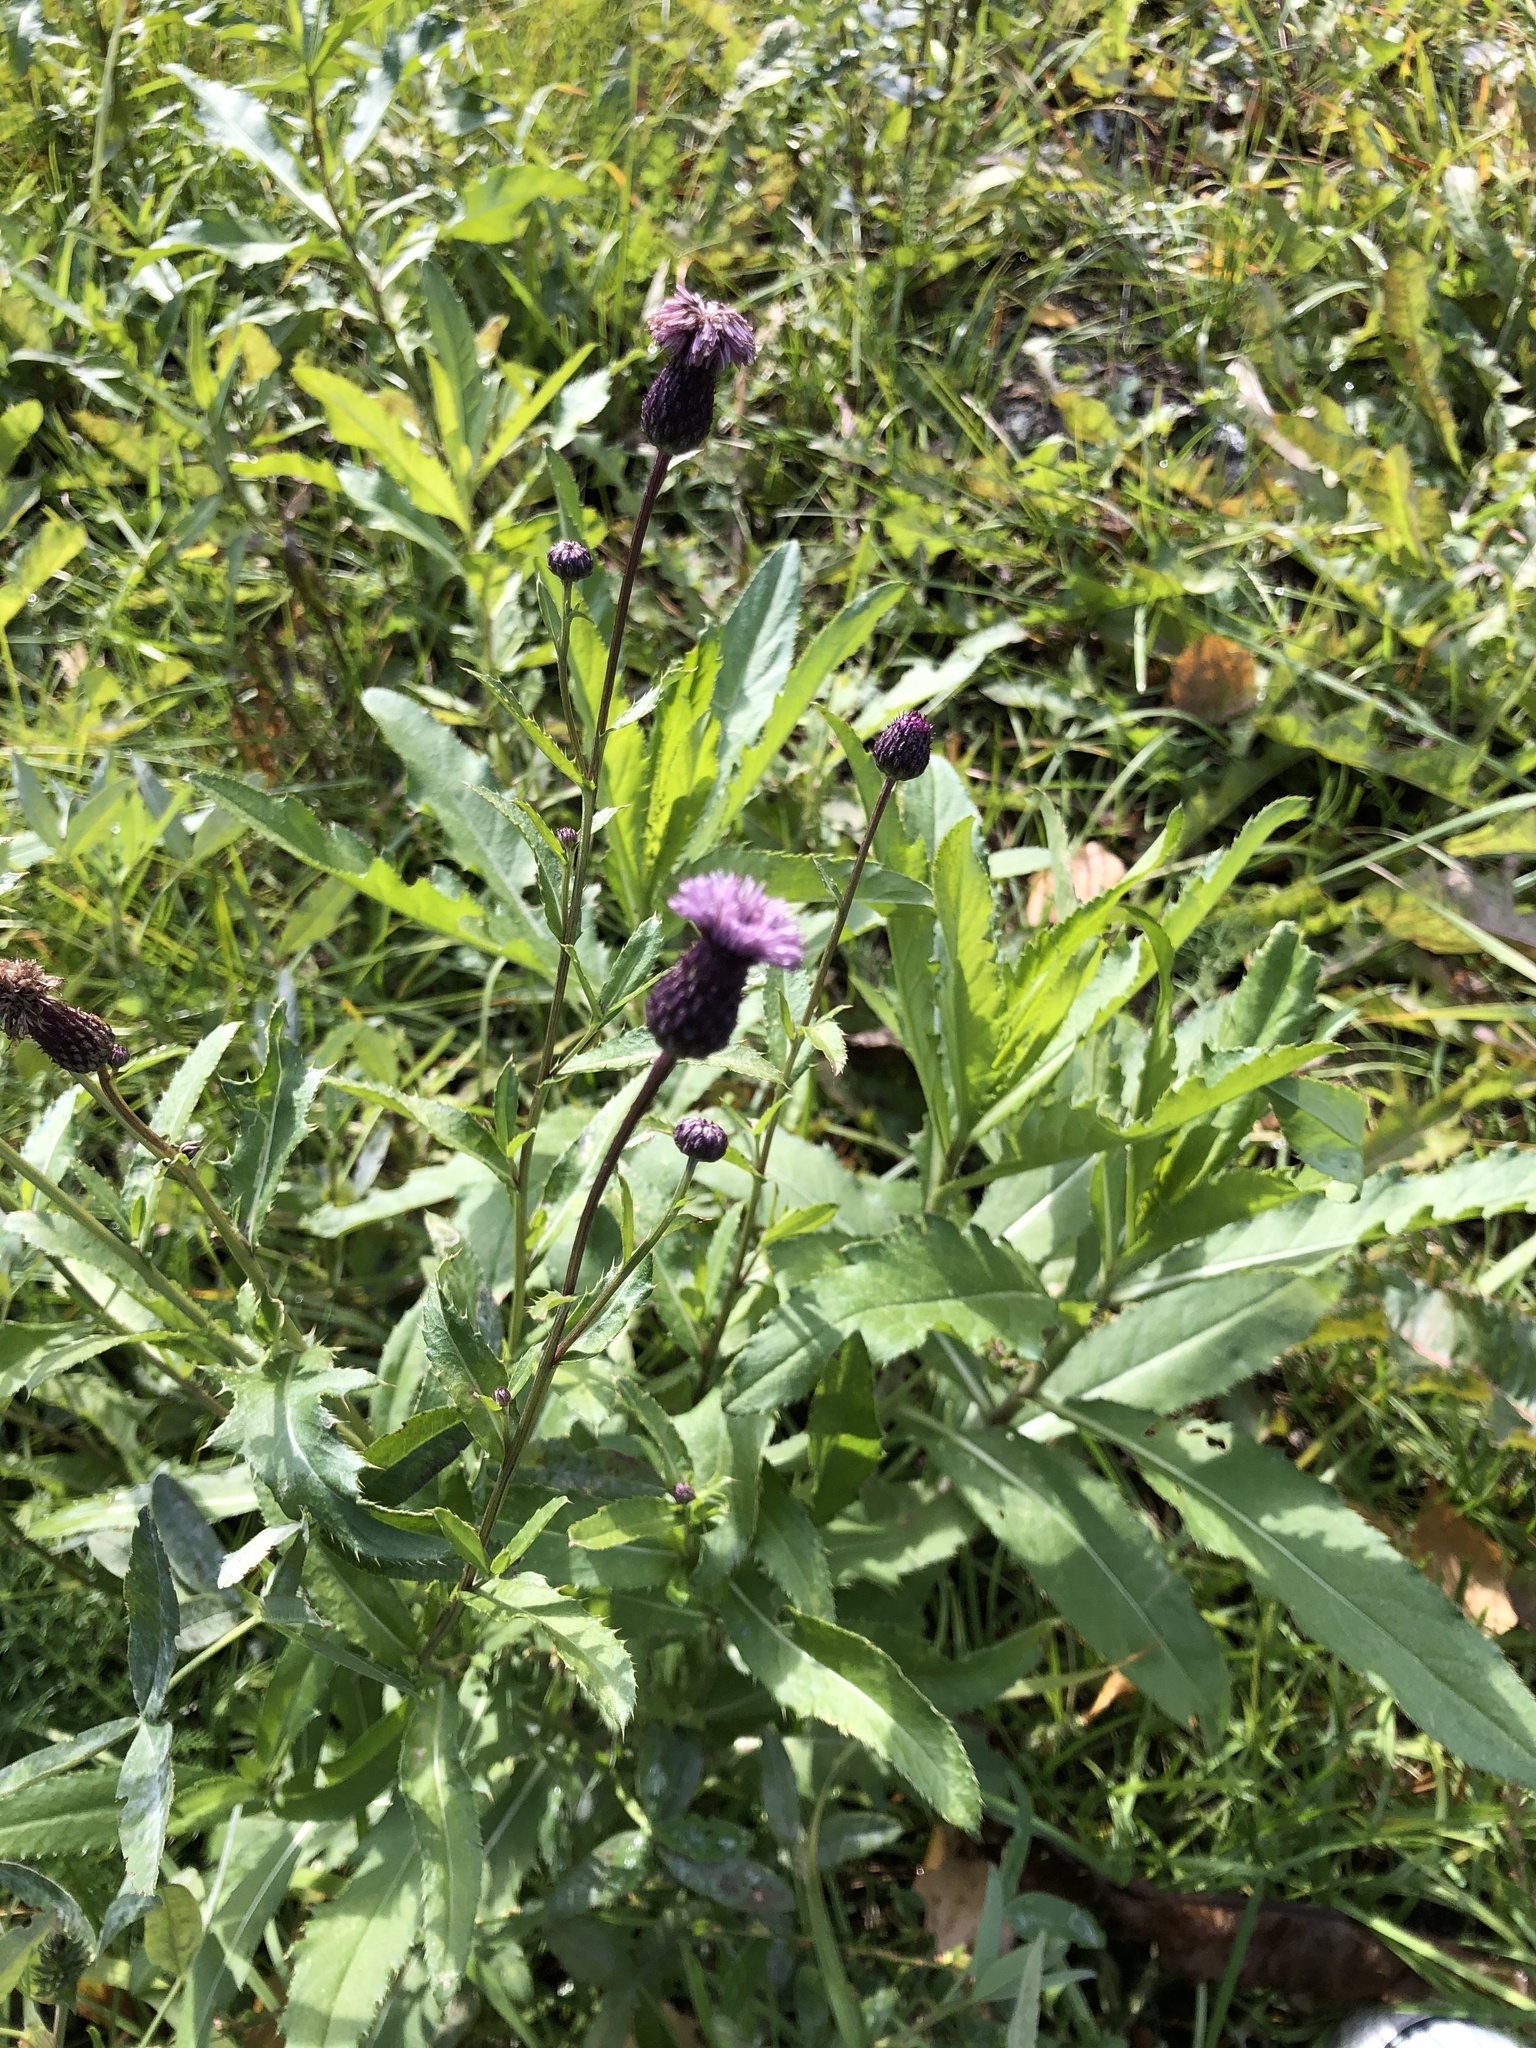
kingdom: Plantae
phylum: Tracheophyta
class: Magnoliopsida
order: Asterales
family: Asteraceae
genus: Cirsium
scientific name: Cirsium arvense
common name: Creeping thistle
